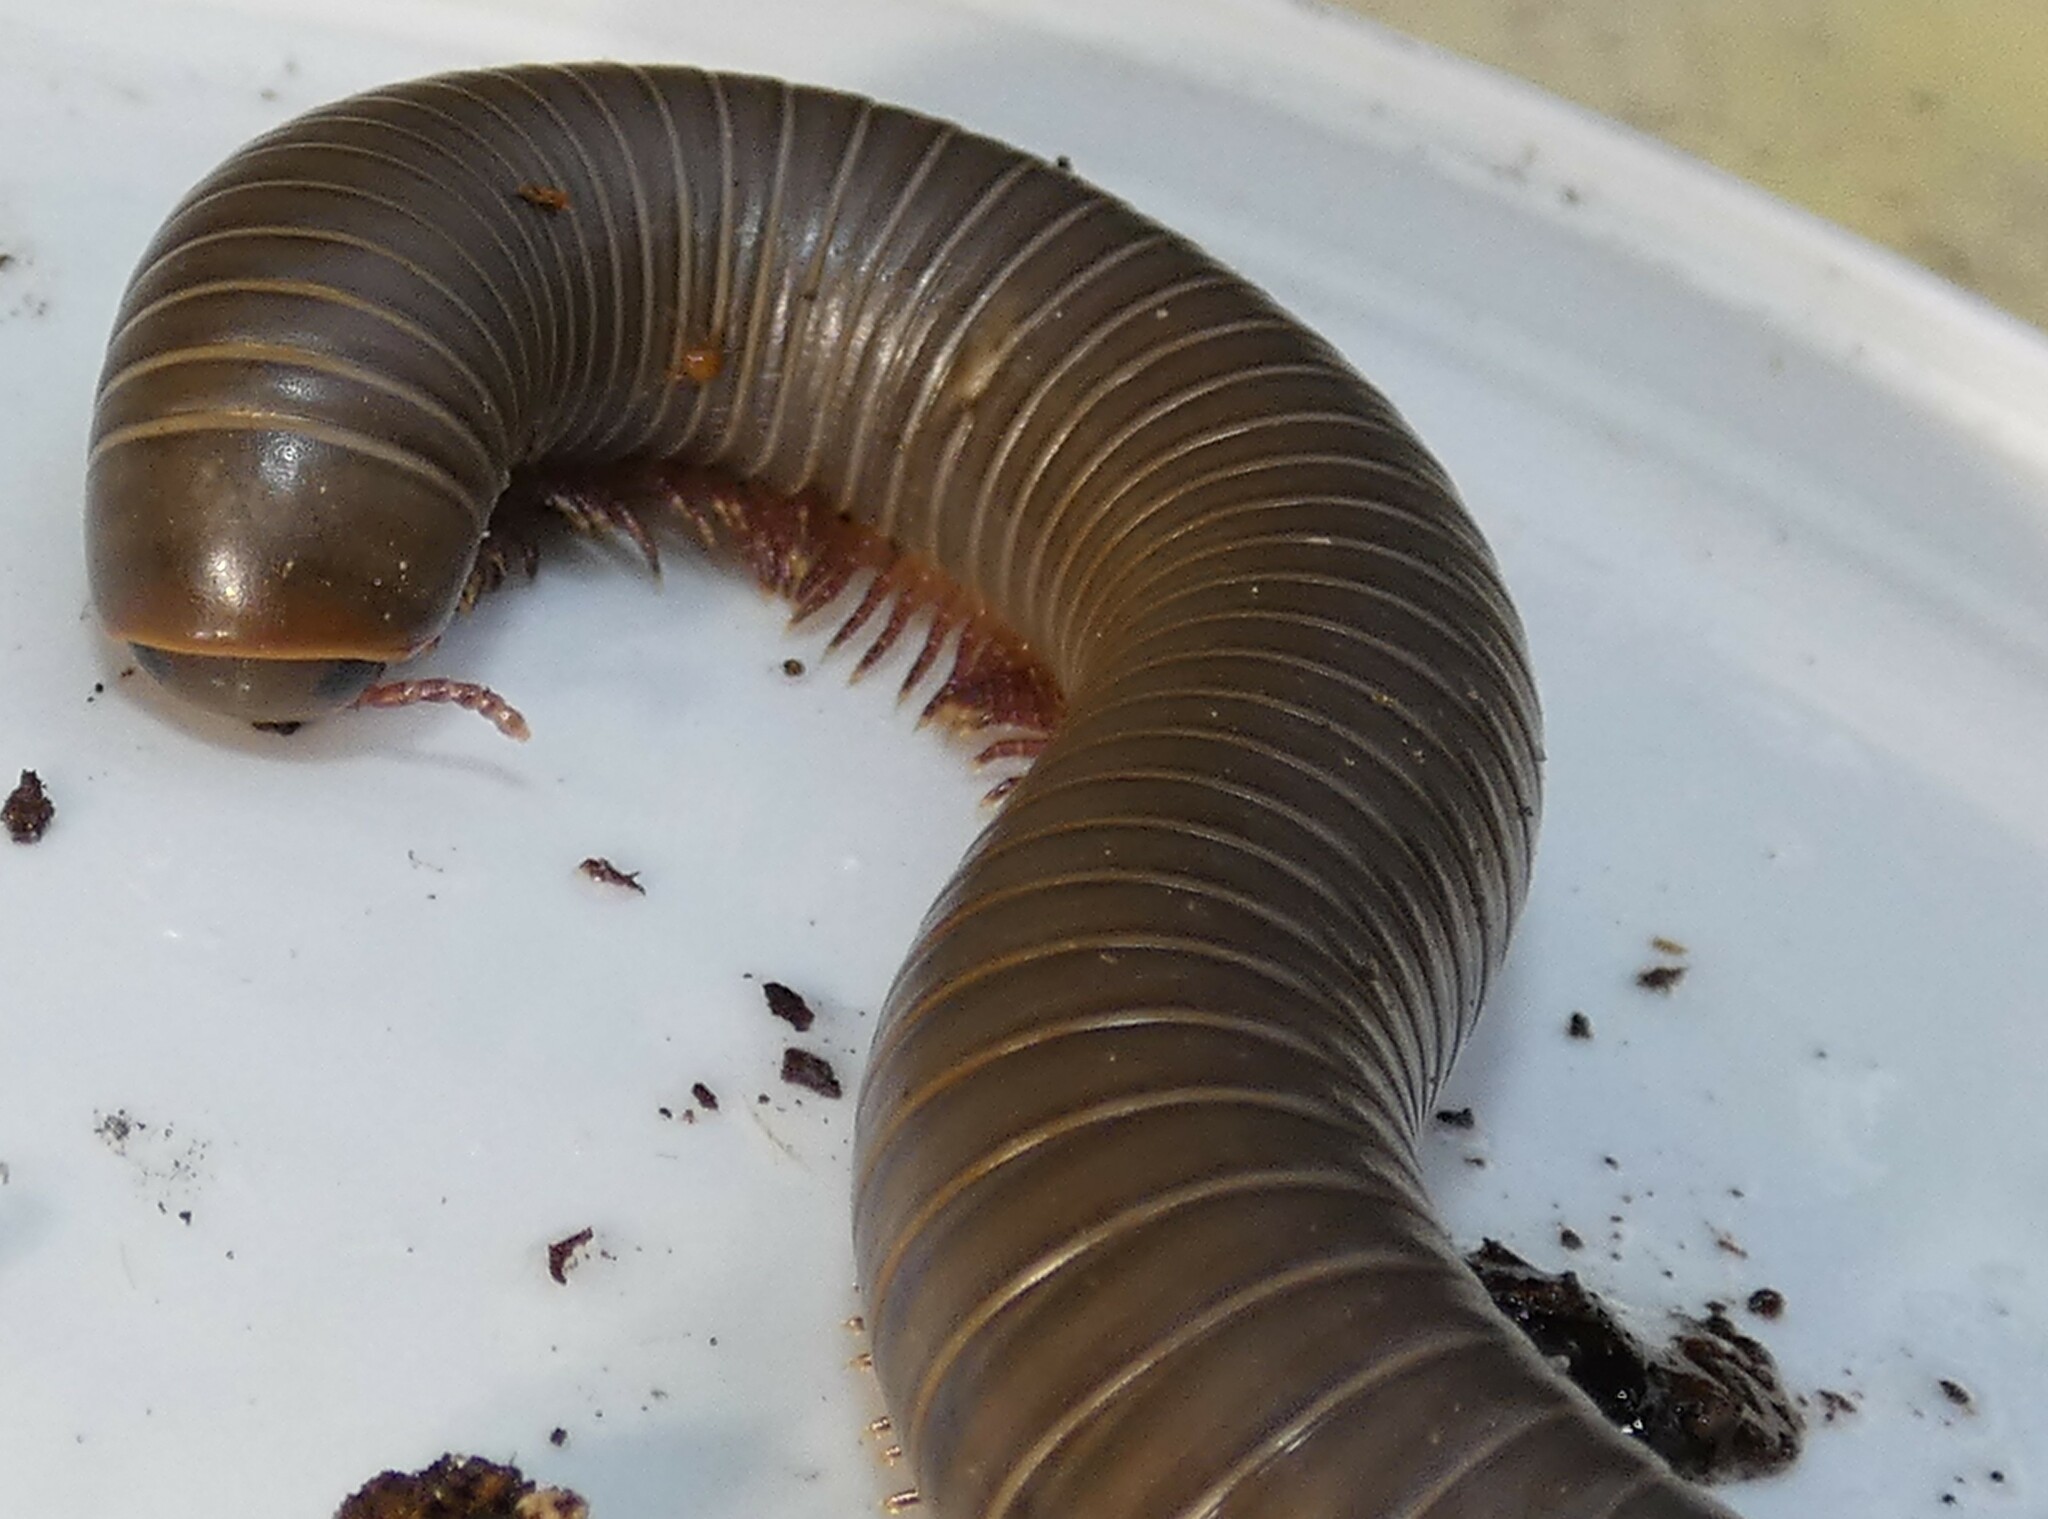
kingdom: Animalia
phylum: Arthropoda
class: Diplopoda
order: Spirobolida
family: Spirobolidae
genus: Narceus
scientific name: Narceus gordanus
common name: Grayish-green millipede
